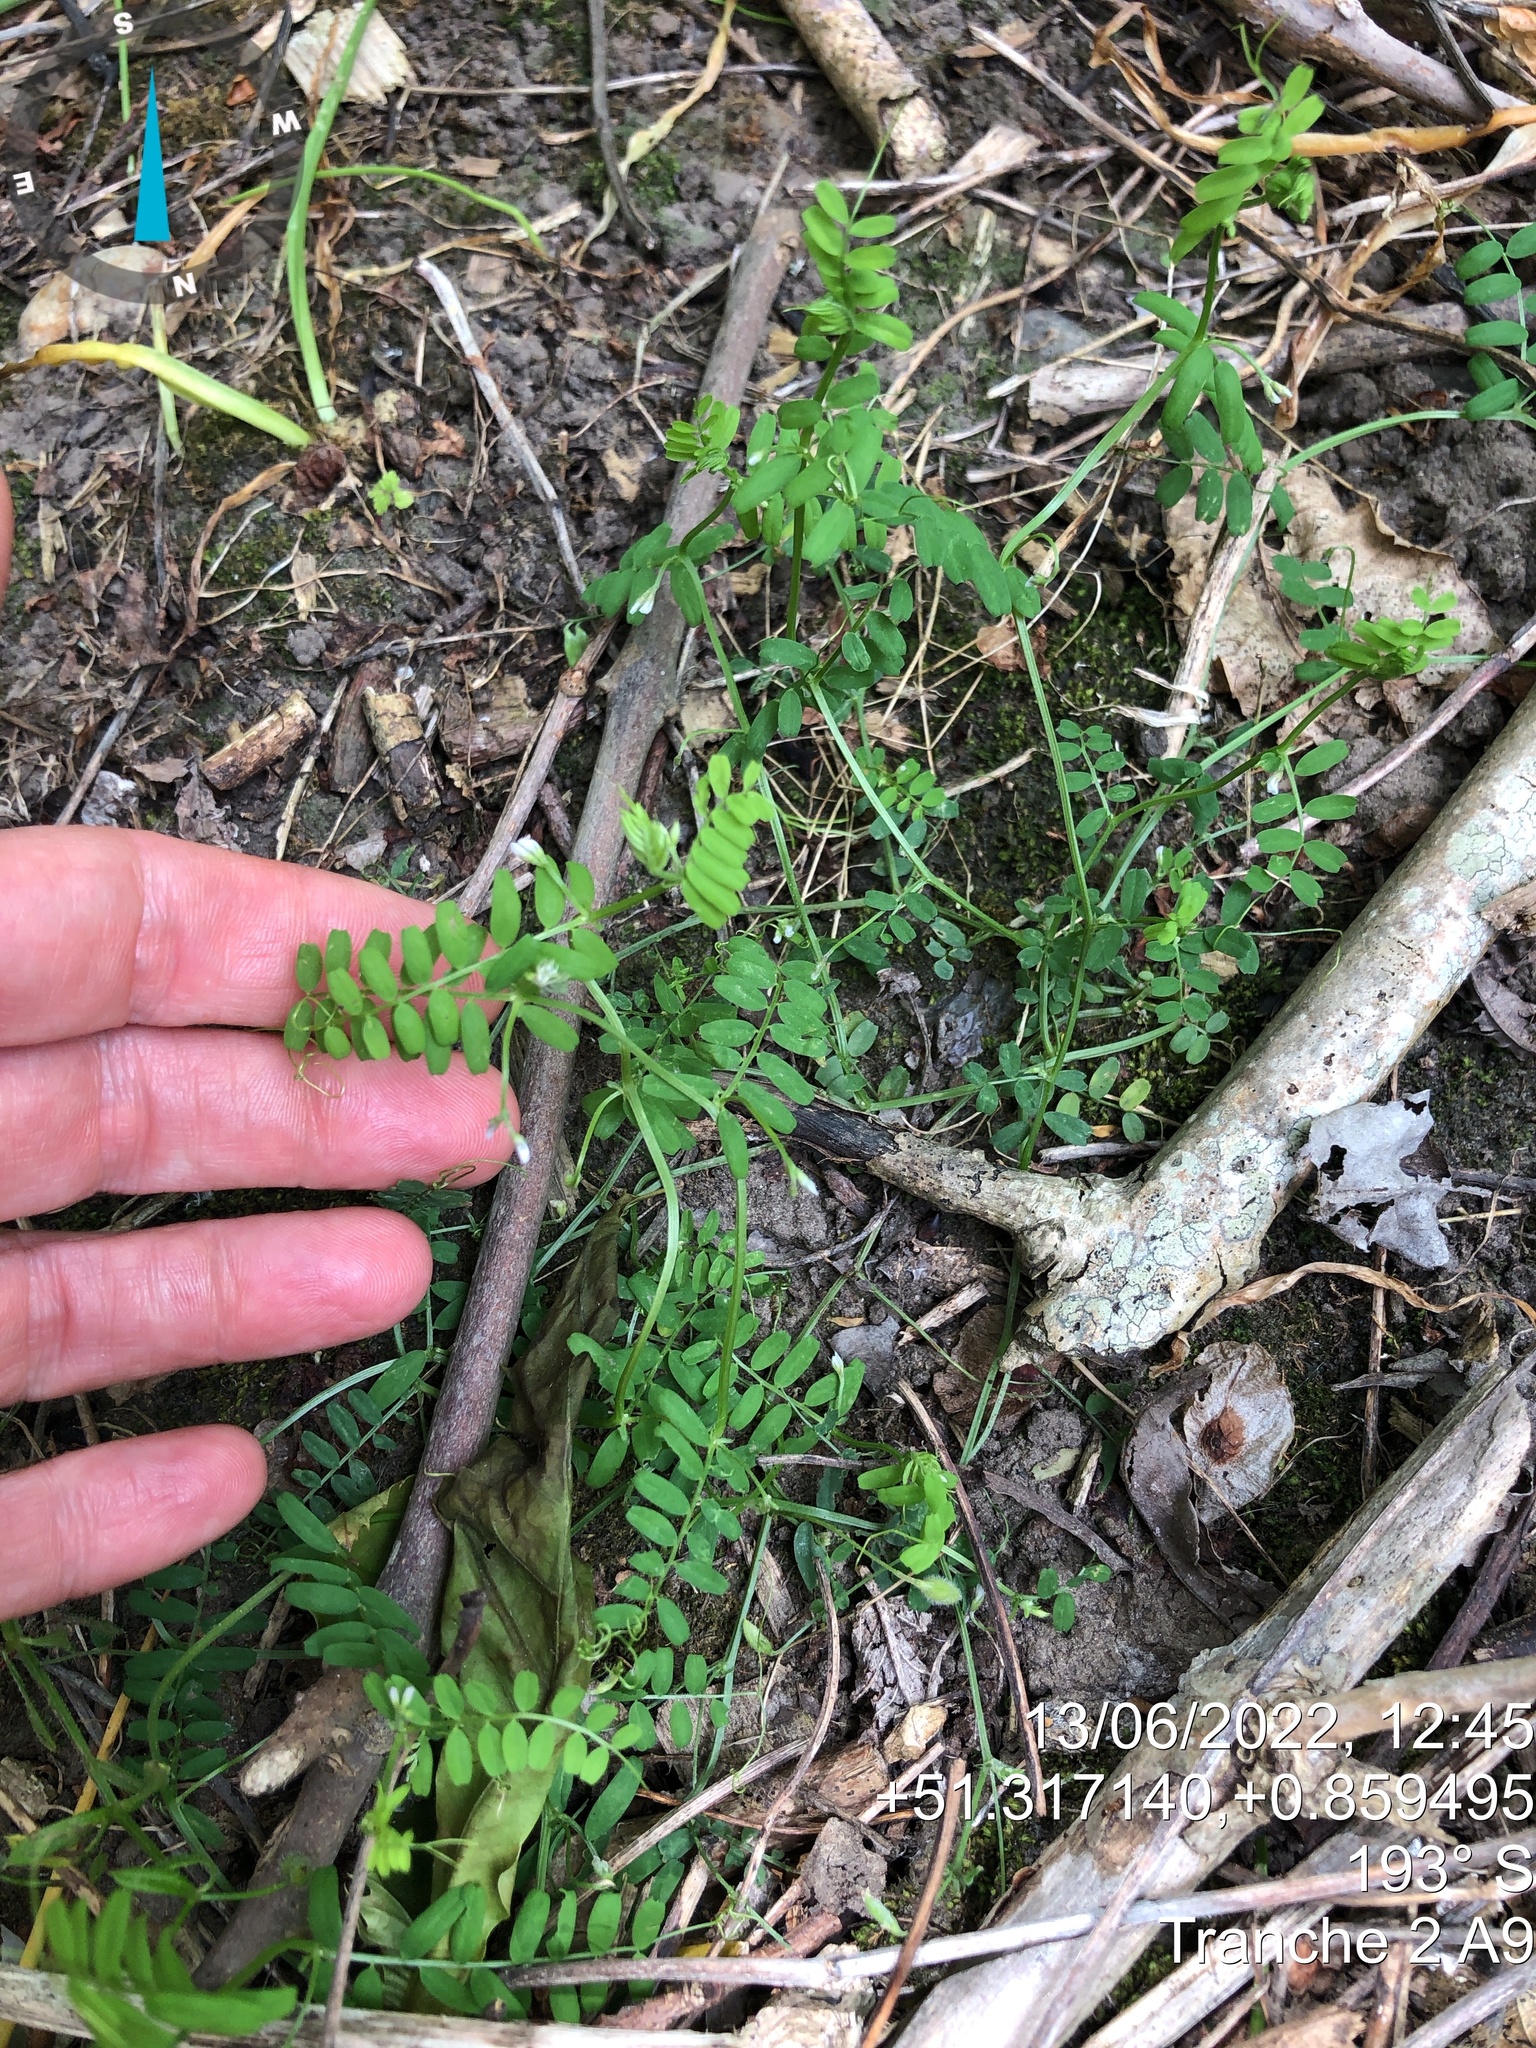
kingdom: Plantae
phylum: Tracheophyta
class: Magnoliopsida
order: Fabales
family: Fabaceae
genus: Vicia
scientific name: Vicia hirsuta
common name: Tiny vetch
